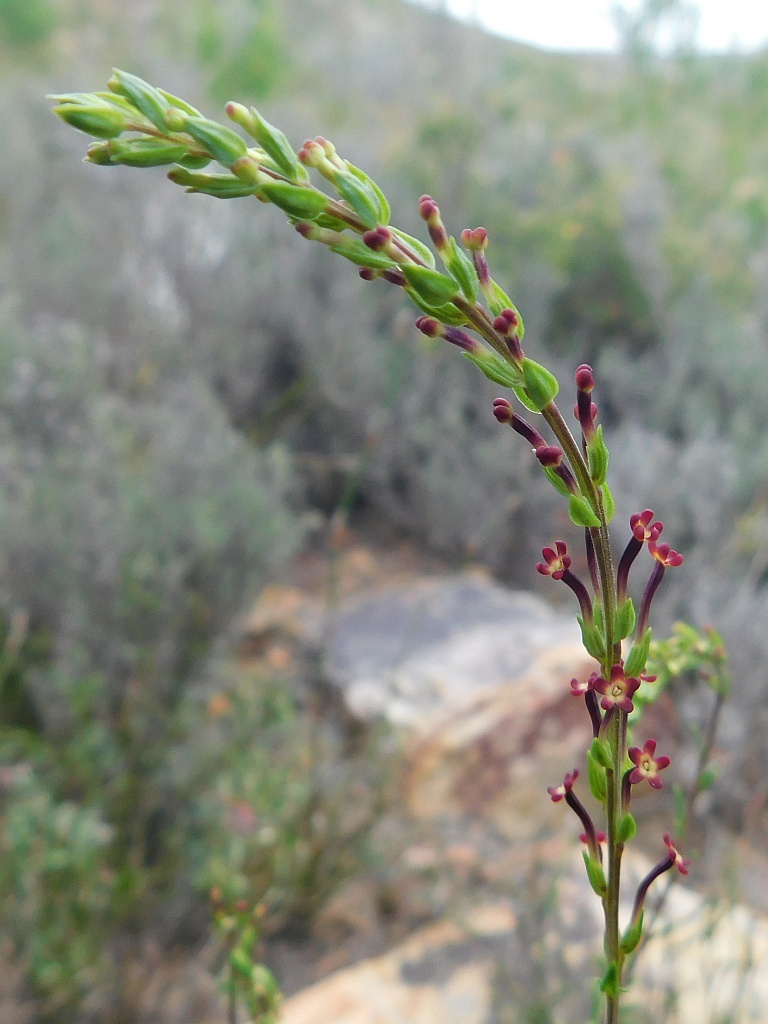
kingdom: Plantae
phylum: Tracheophyta
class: Magnoliopsida
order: Lamiales
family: Scrophulariaceae
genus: Microdon
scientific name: Microdon dubius
